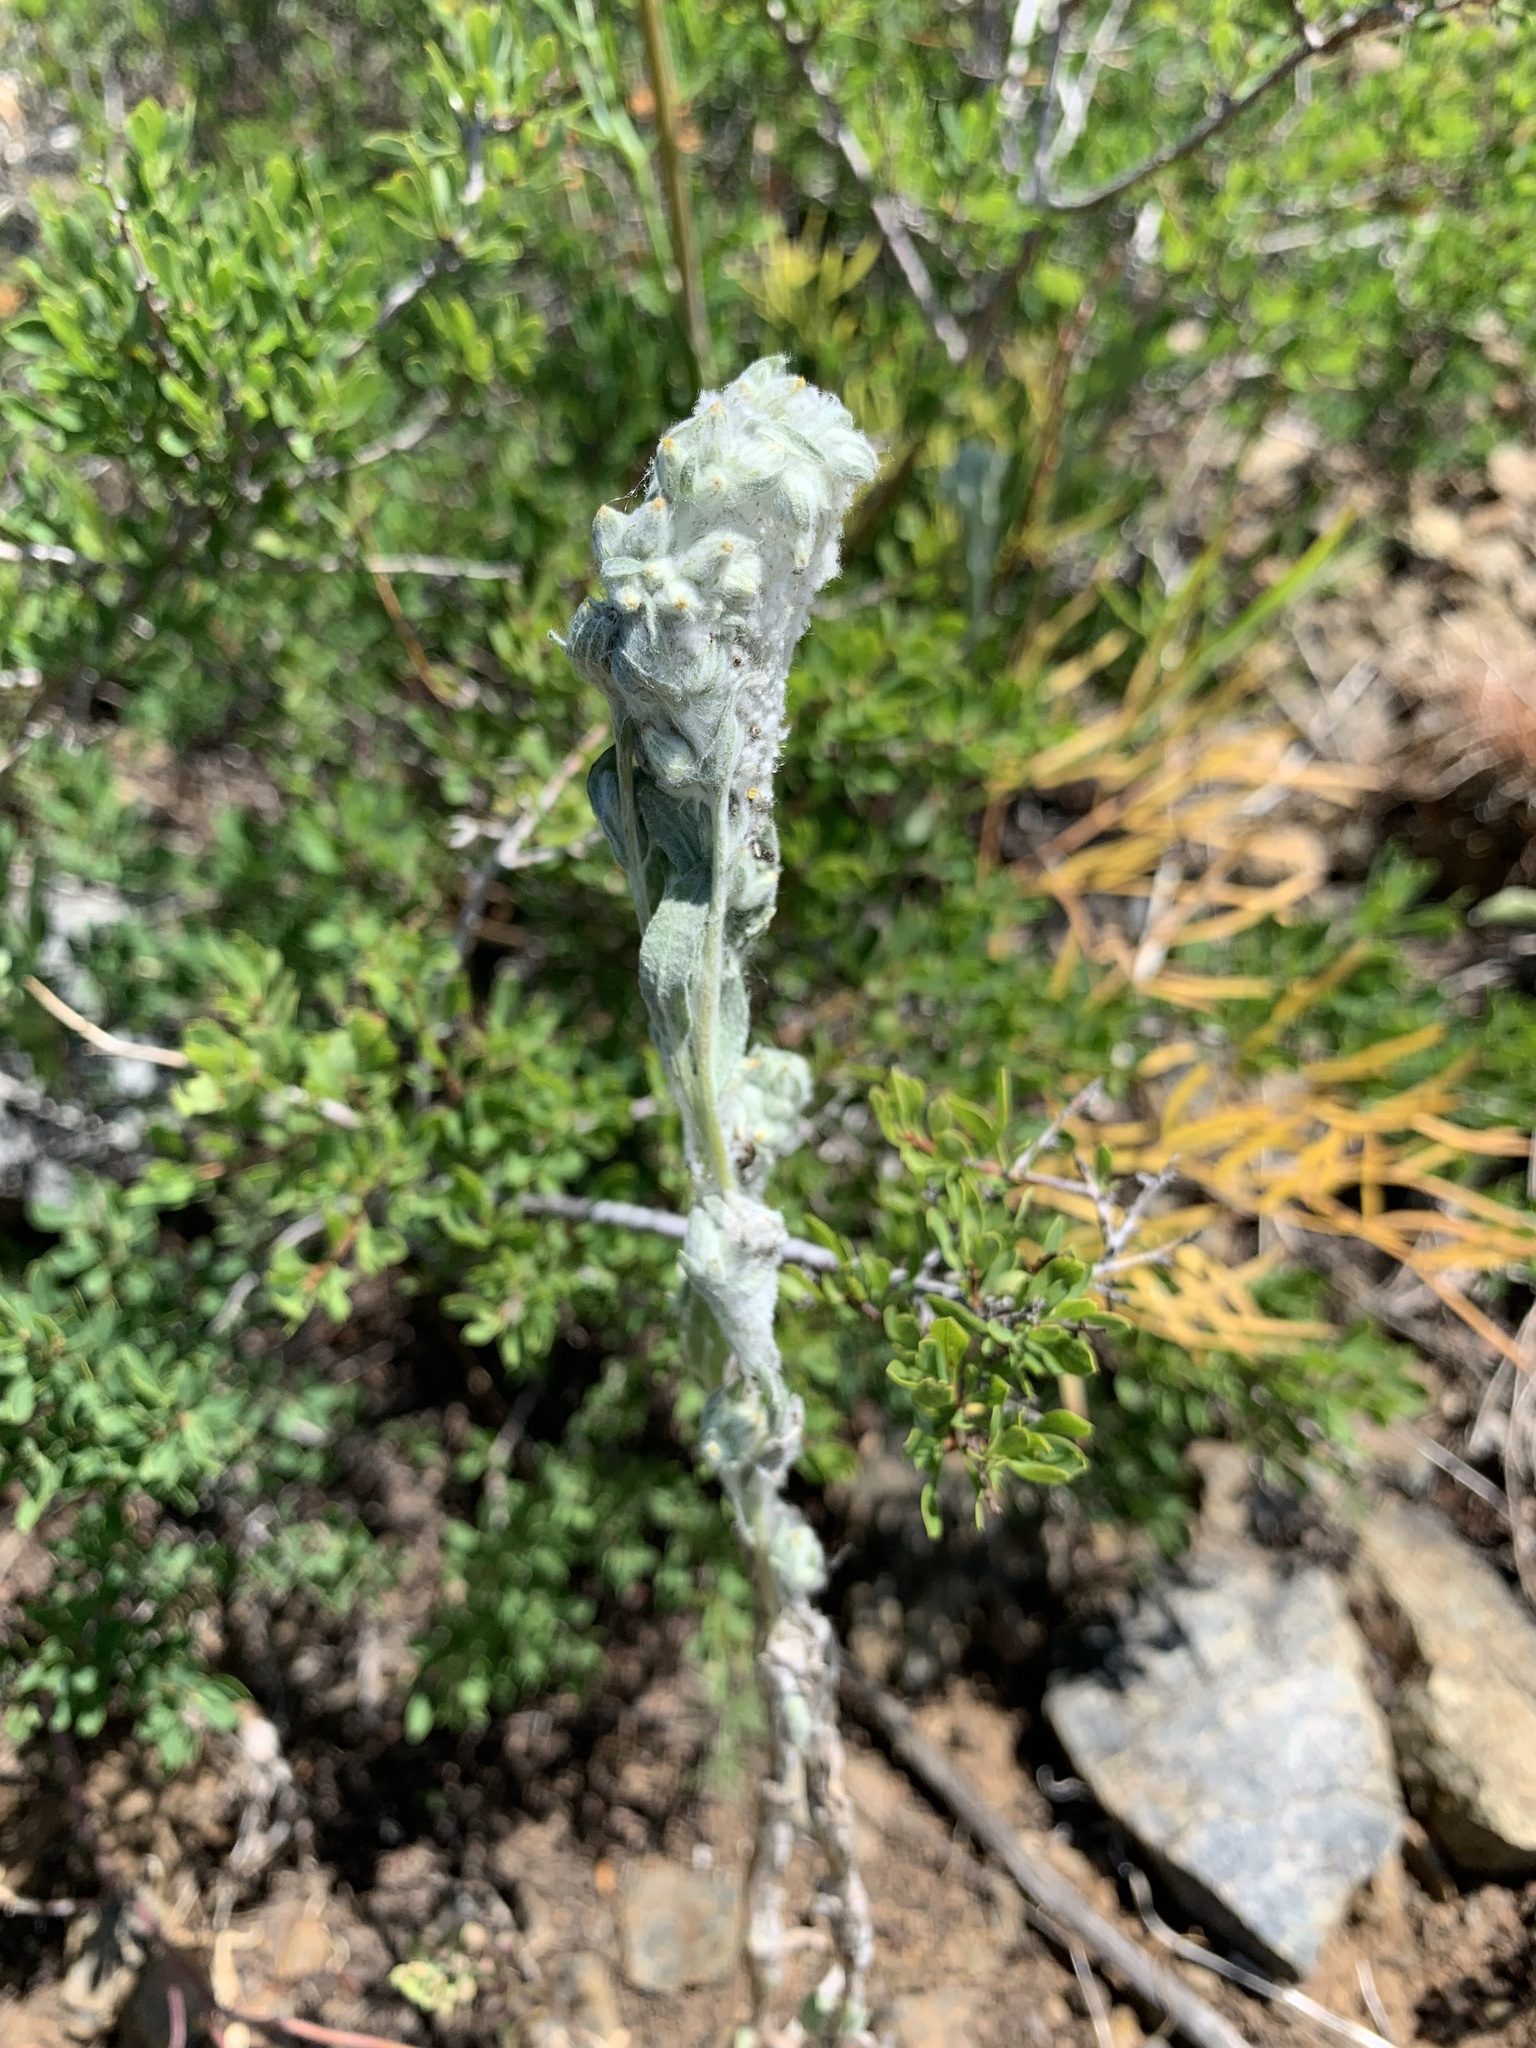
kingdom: Plantae
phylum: Tracheophyta
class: Magnoliopsida
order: Asterales
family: Asteraceae
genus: Filago
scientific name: Filago arvensis
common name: Field cudweed
